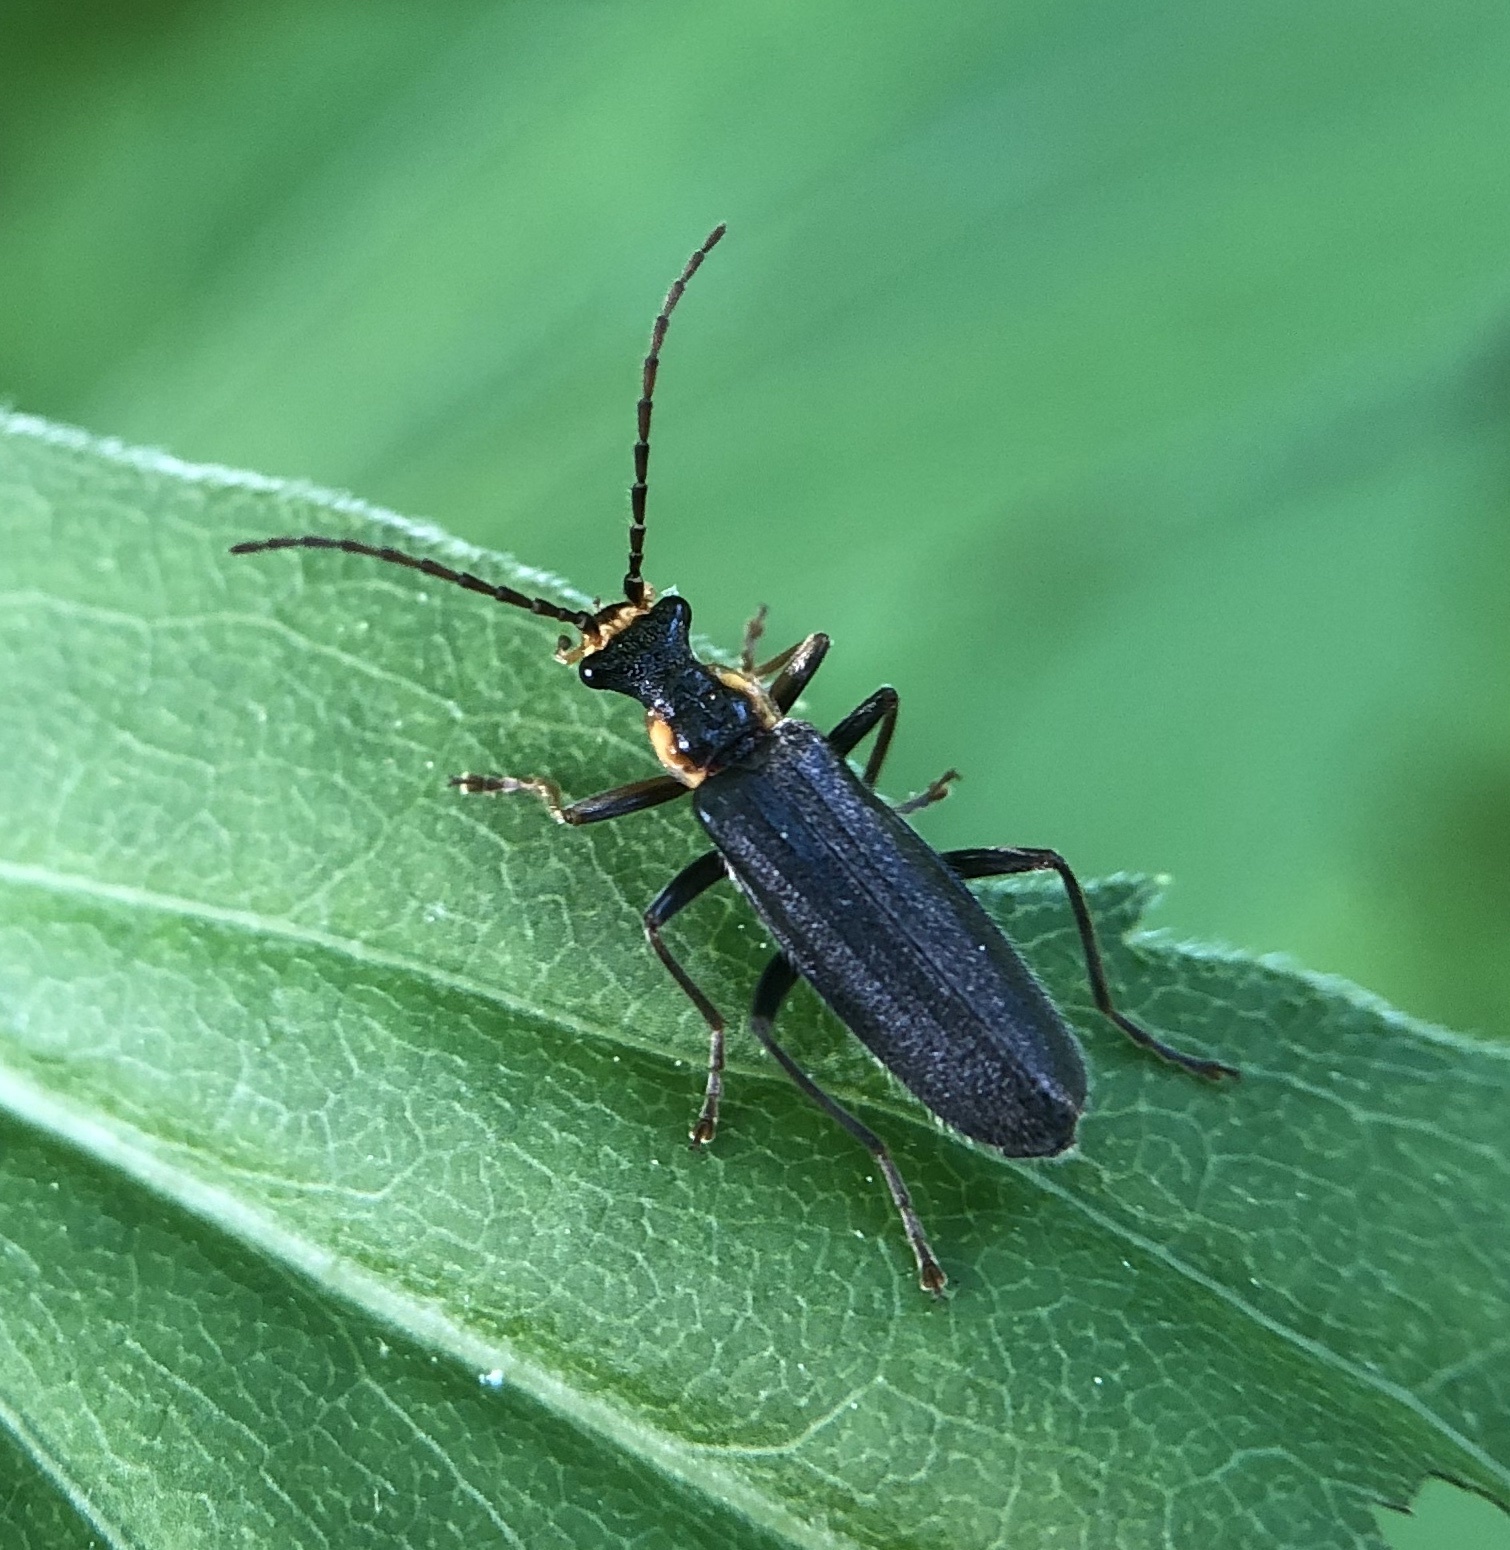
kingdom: Animalia
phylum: Arthropoda
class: Insecta
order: Coleoptera
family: Cantharidae
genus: Podabrus
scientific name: Podabrus rugosulus
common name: Wrinkled soldier beetle
